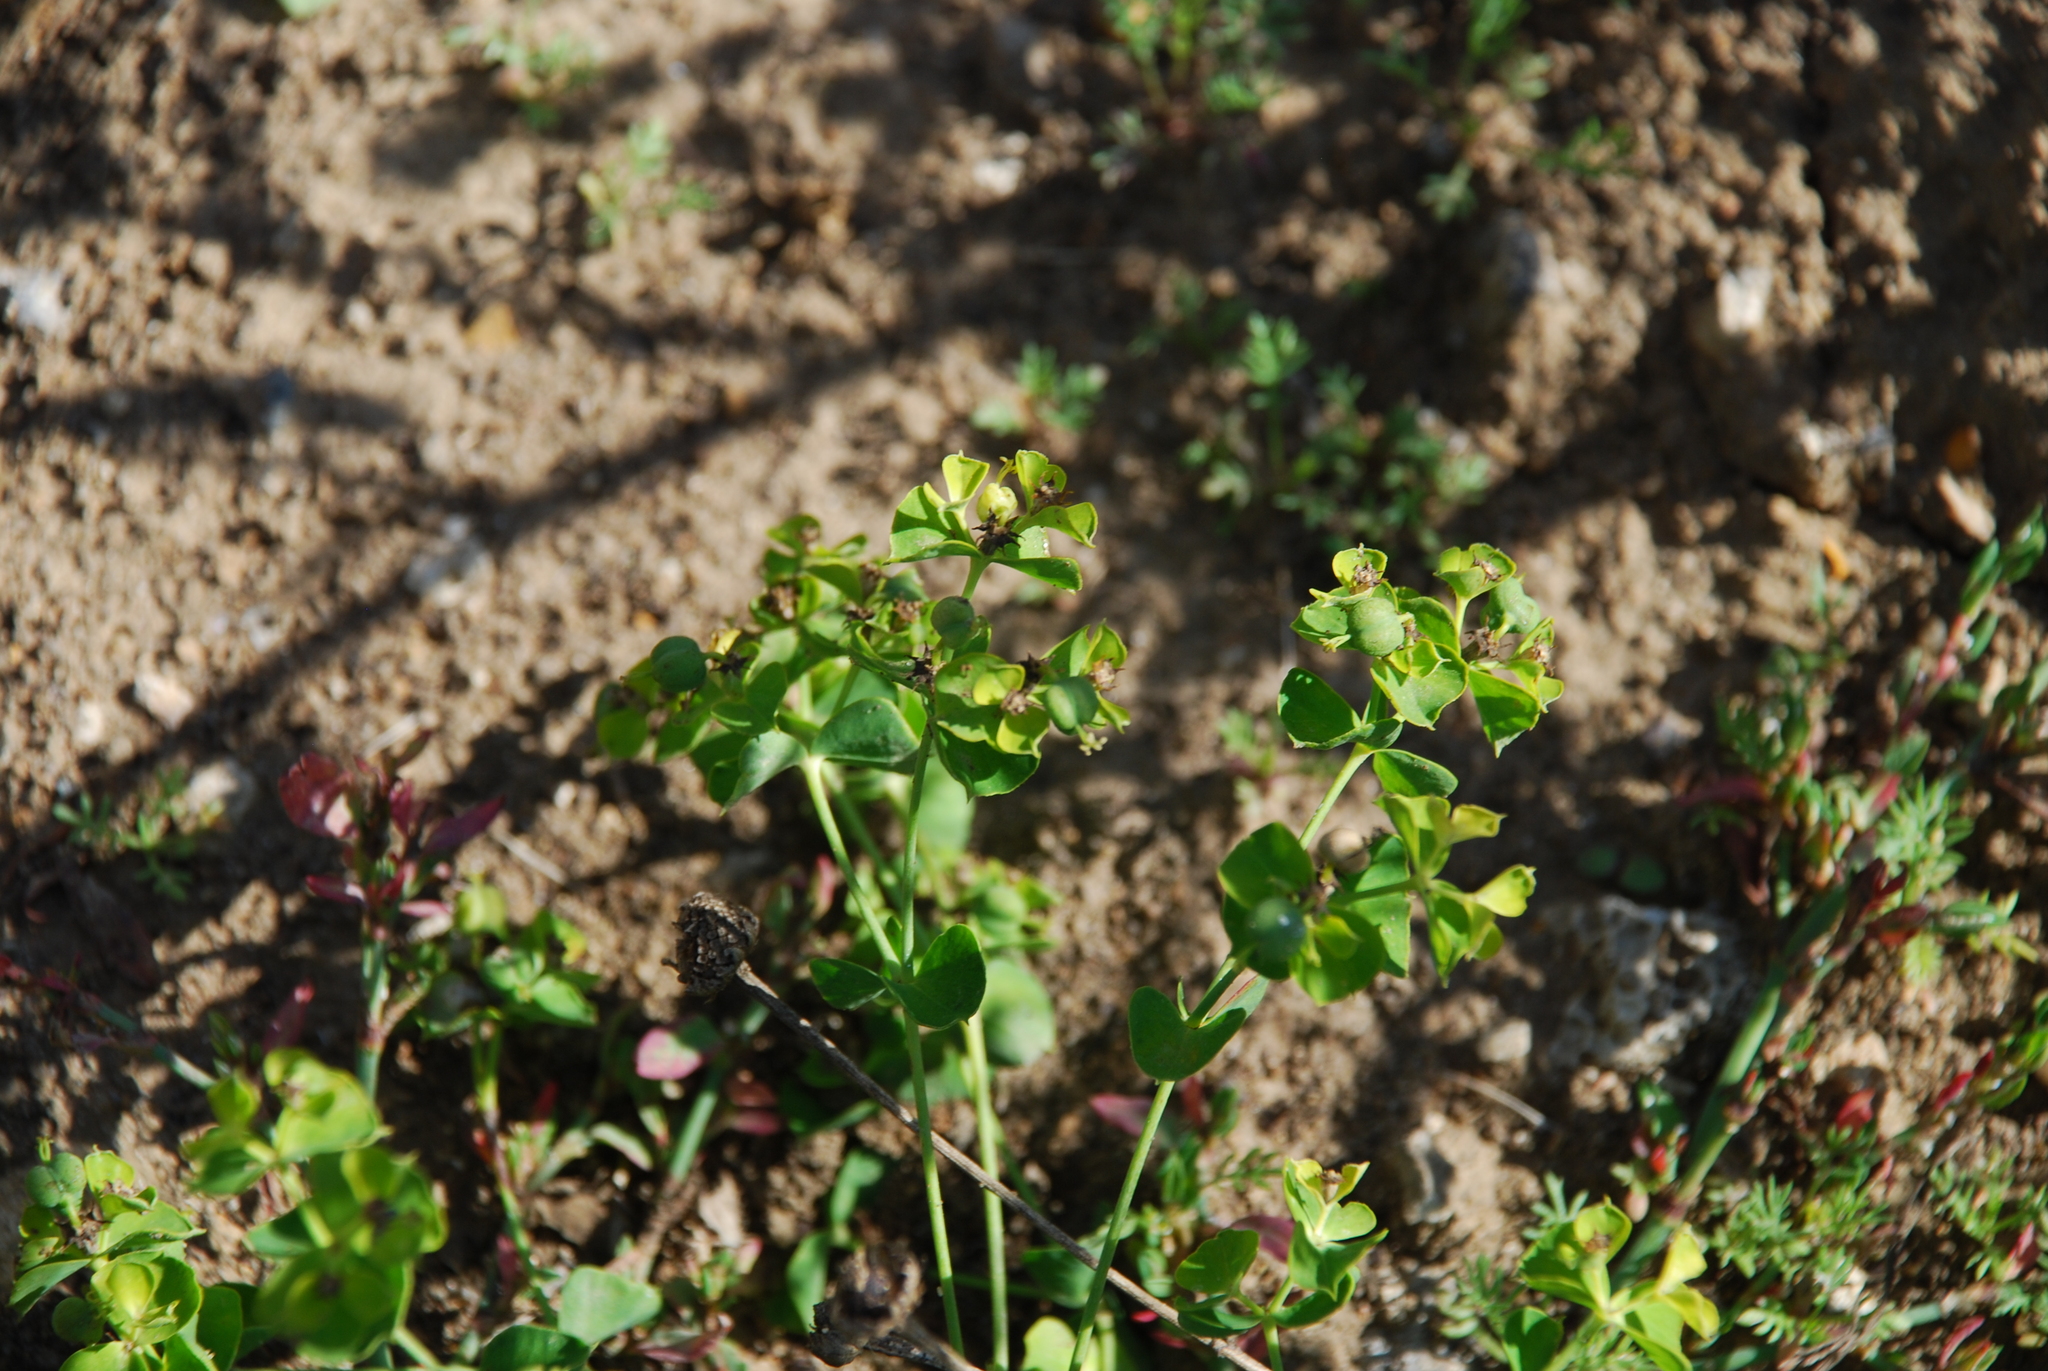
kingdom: Plantae
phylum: Tracheophyta
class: Magnoliopsida
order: Malpighiales
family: Euphorbiaceae
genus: Euphorbia
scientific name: Euphorbia virgata
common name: Leafy spurge
